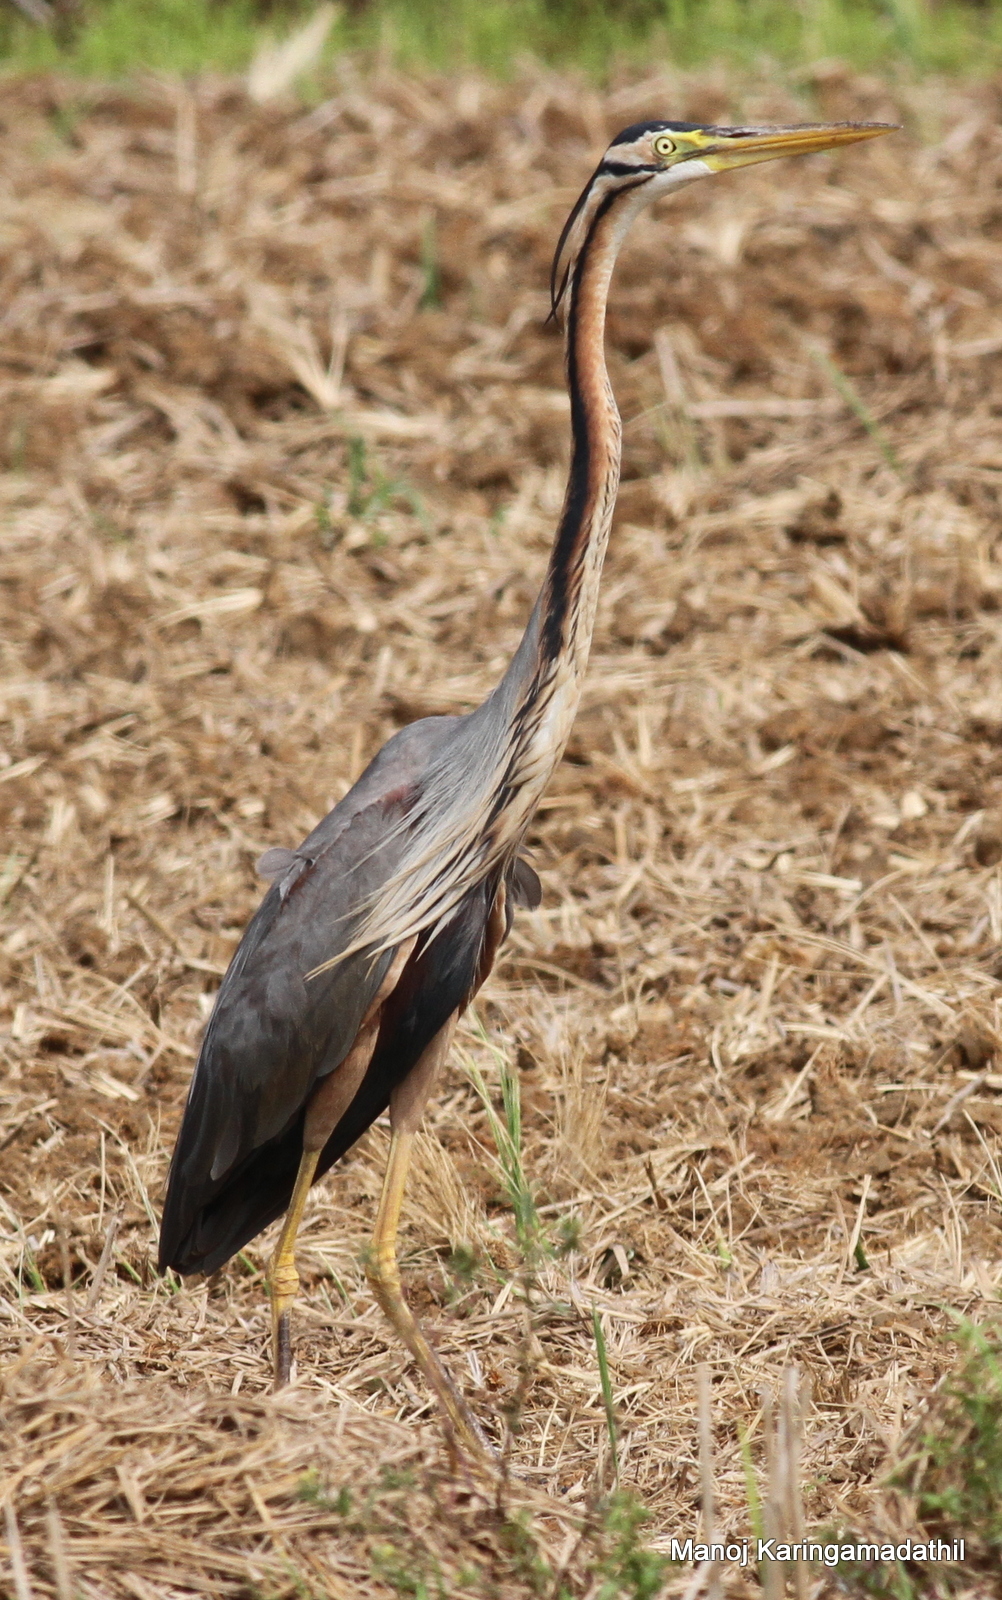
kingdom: Animalia
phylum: Chordata
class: Aves
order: Pelecaniformes
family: Ardeidae
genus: Ardea
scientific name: Ardea purpurea
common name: Purple heron
